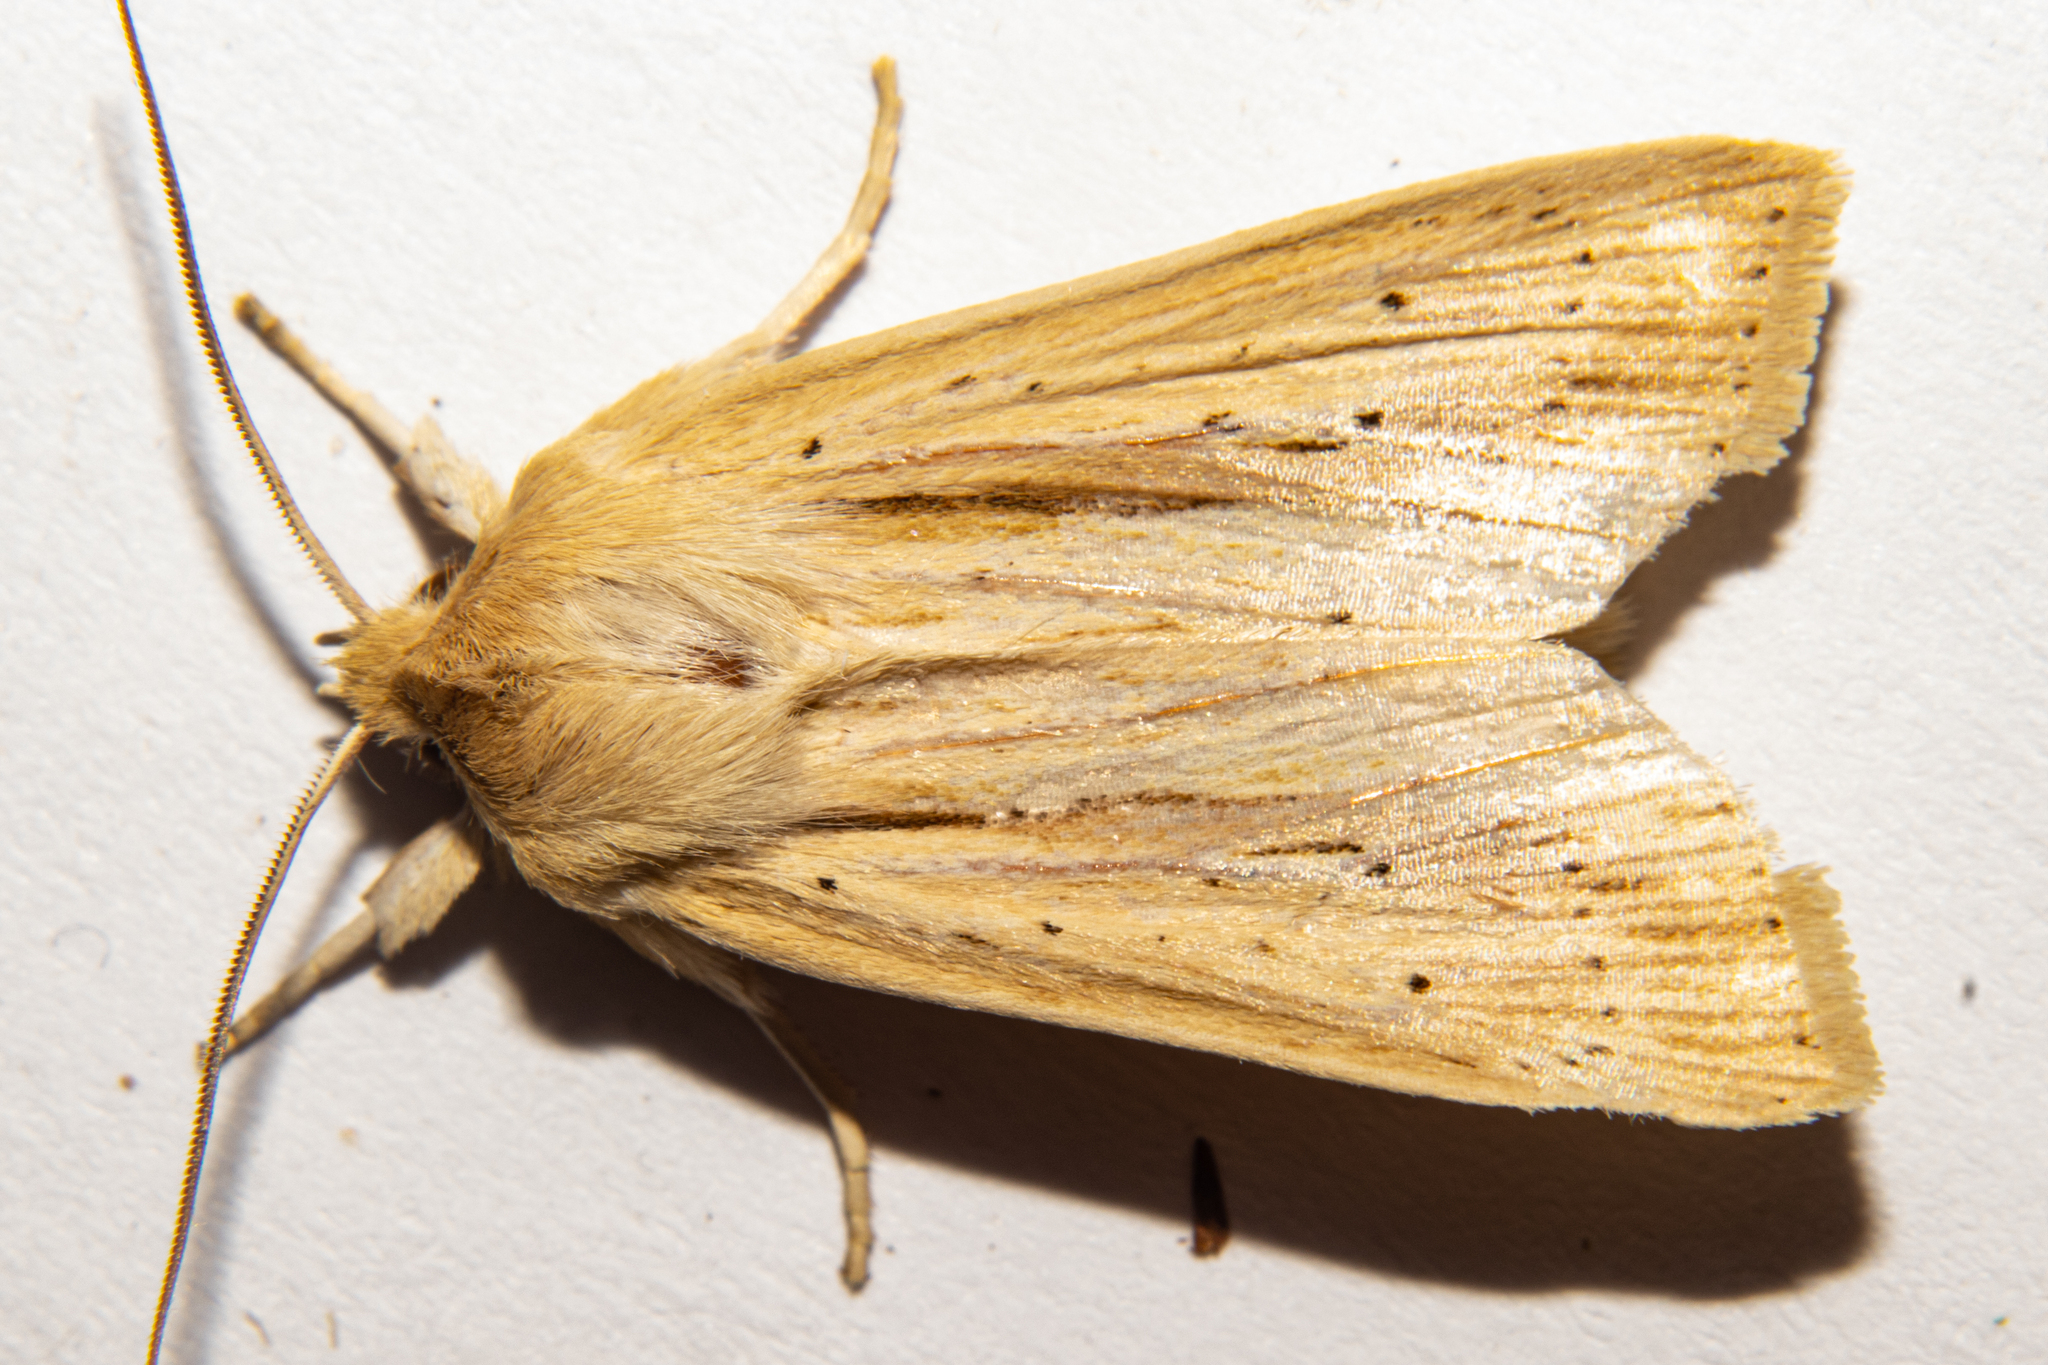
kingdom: Animalia
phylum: Arthropoda
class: Insecta
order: Lepidoptera
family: Noctuidae
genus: Ichneutica
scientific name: Ichneutica semivittata
